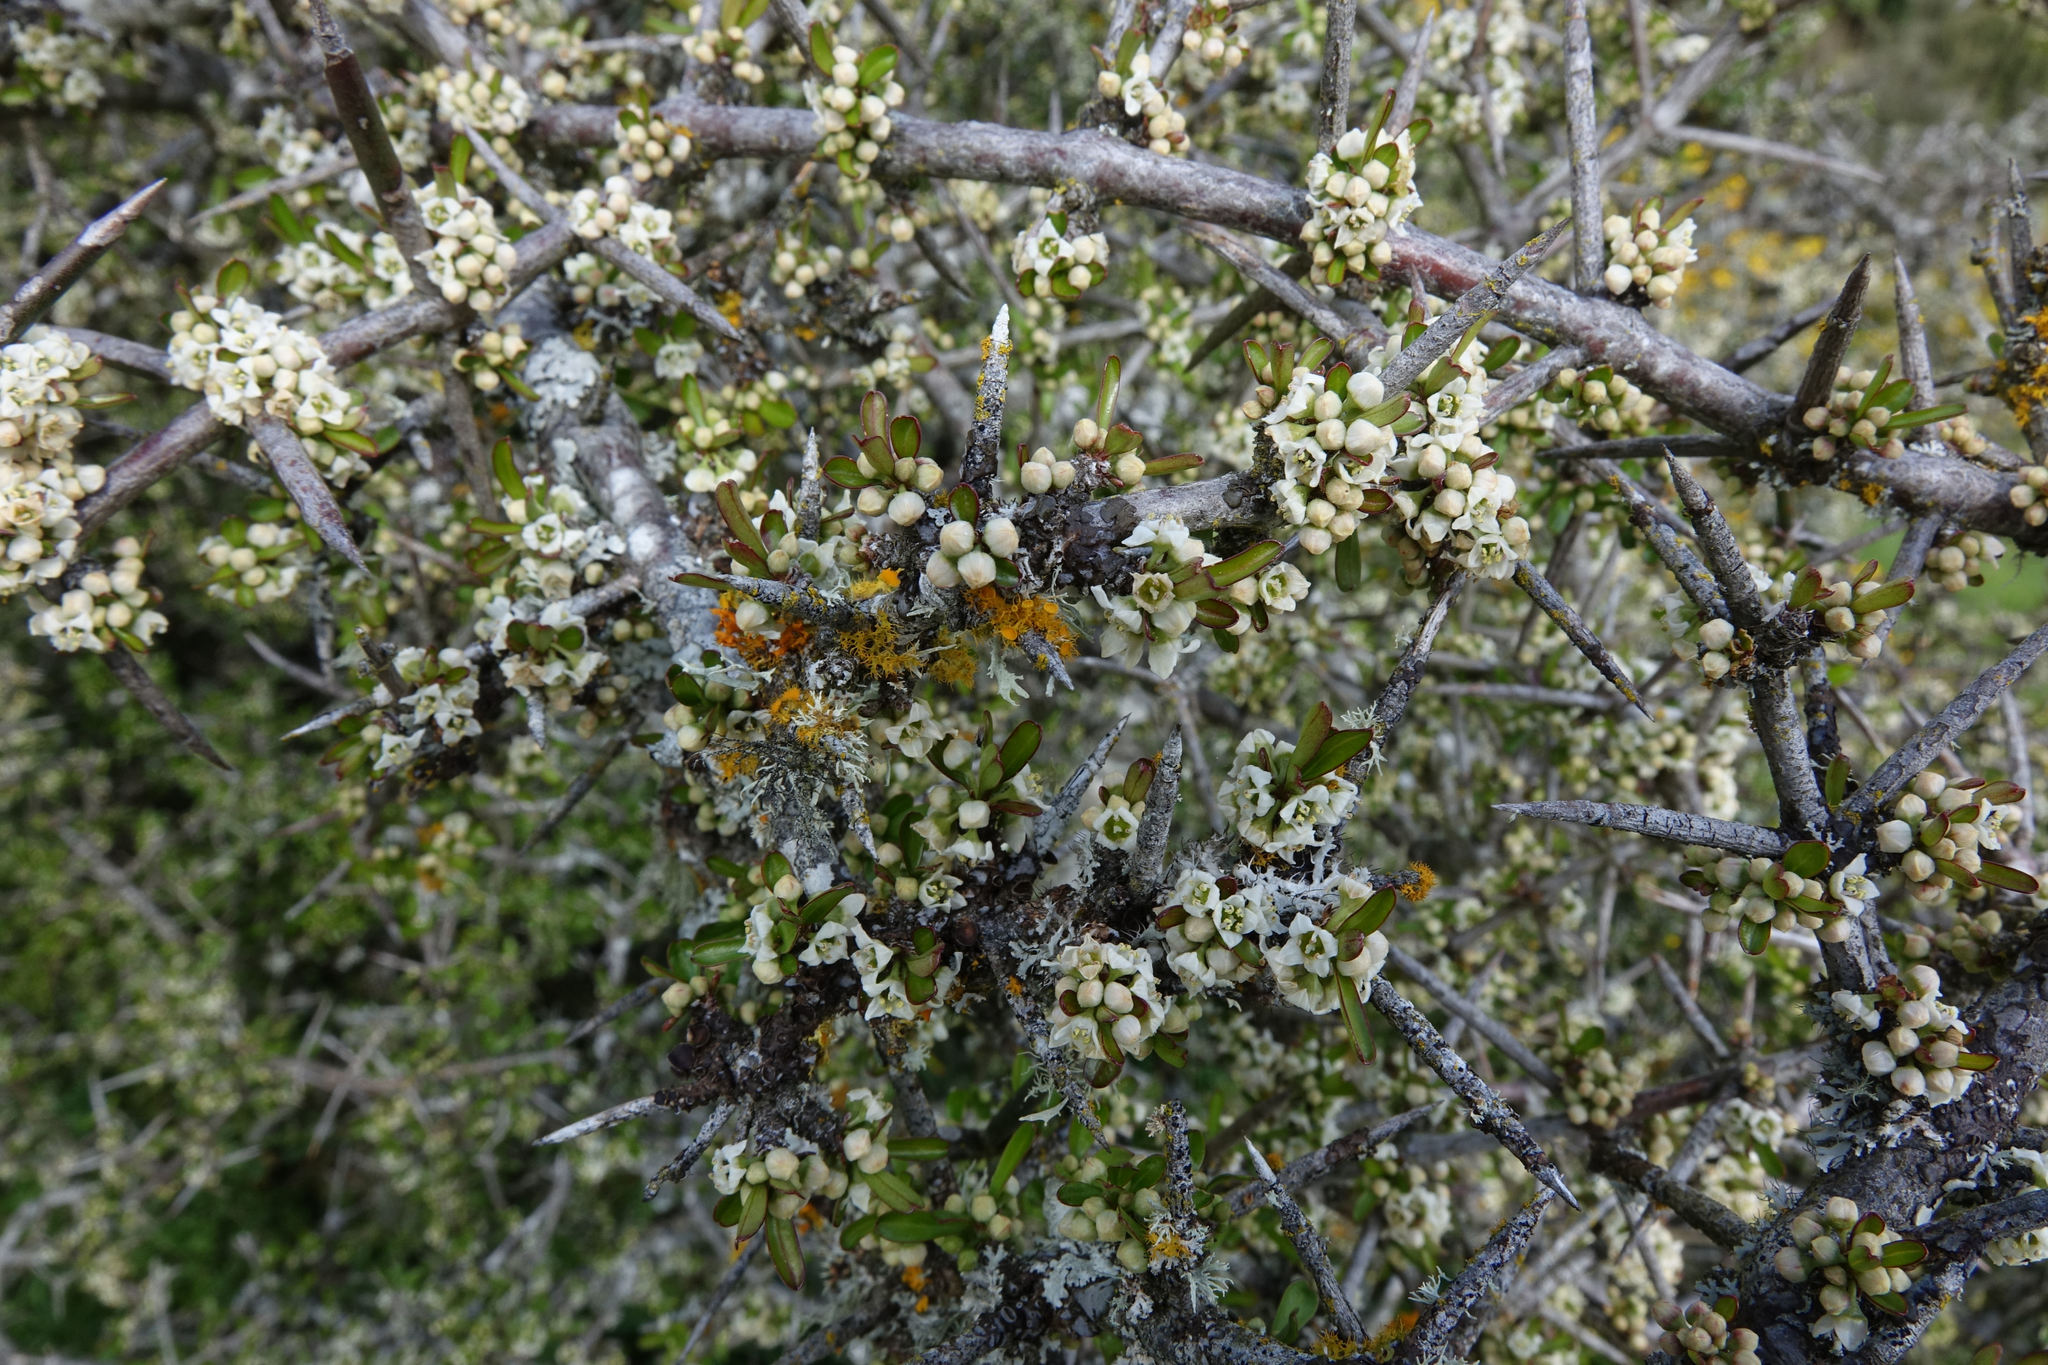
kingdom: Plantae
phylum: Tracheophyta
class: Magnoliopsida
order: Rosales
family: Rhamnaceae
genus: Discaria
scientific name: Discaria toumatou
